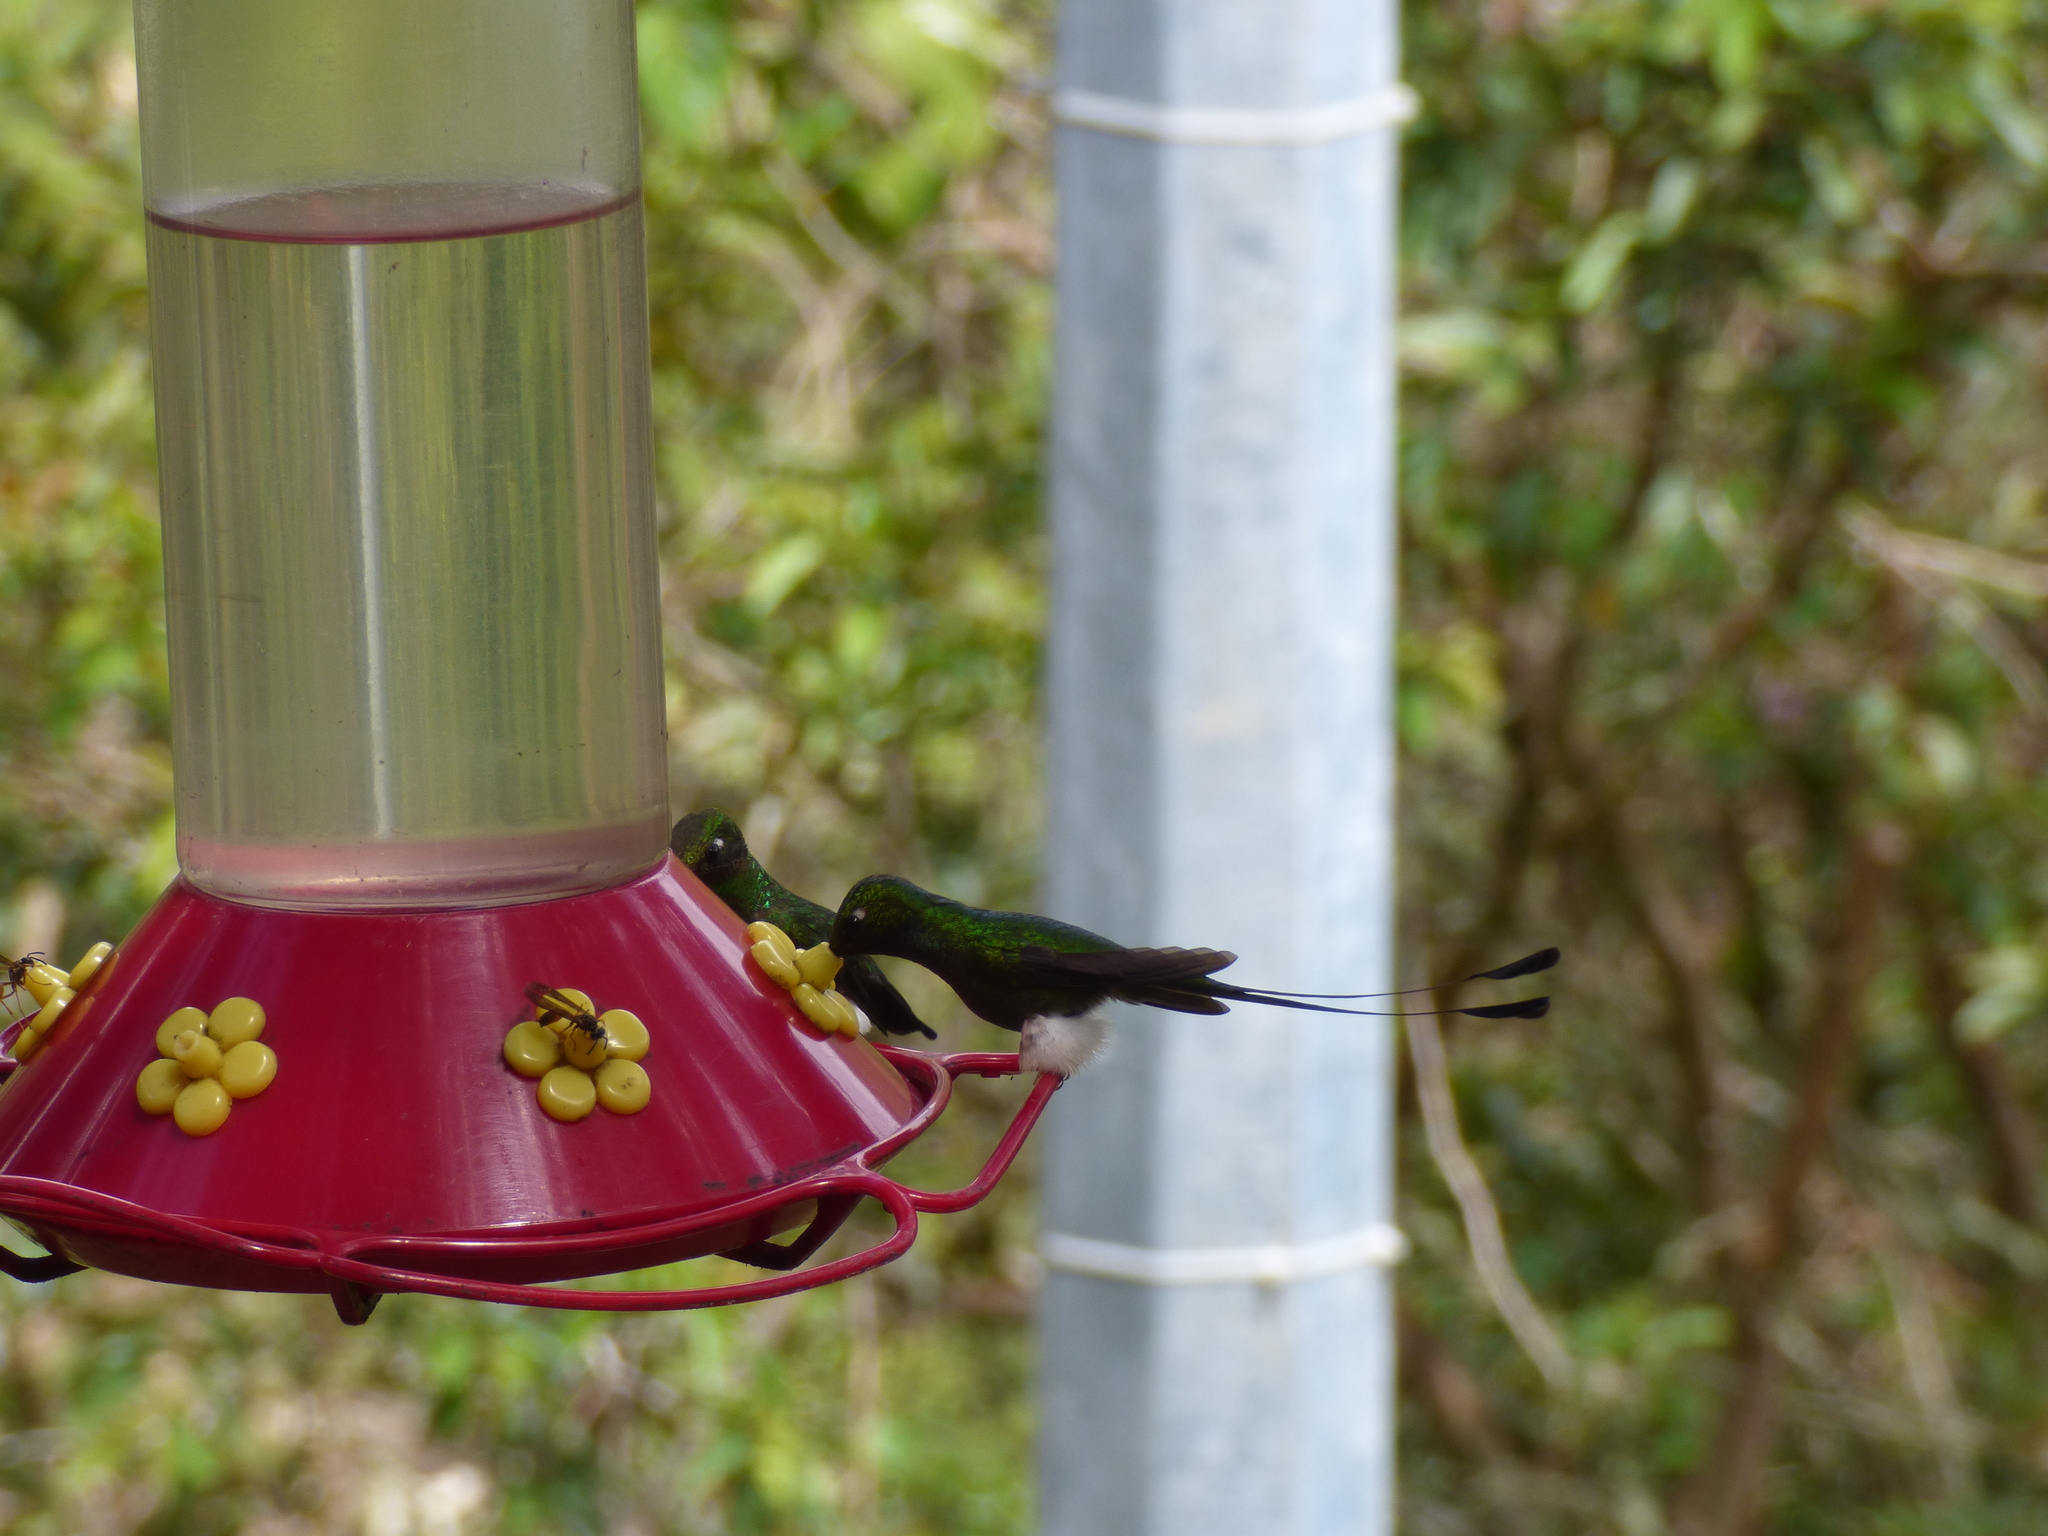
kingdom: Animalia
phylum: Chordata
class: Aves
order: Apodiformes
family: Trochilidae
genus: Ocreatus
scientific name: Ocreatus underwoodii
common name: Booted racket-tail
